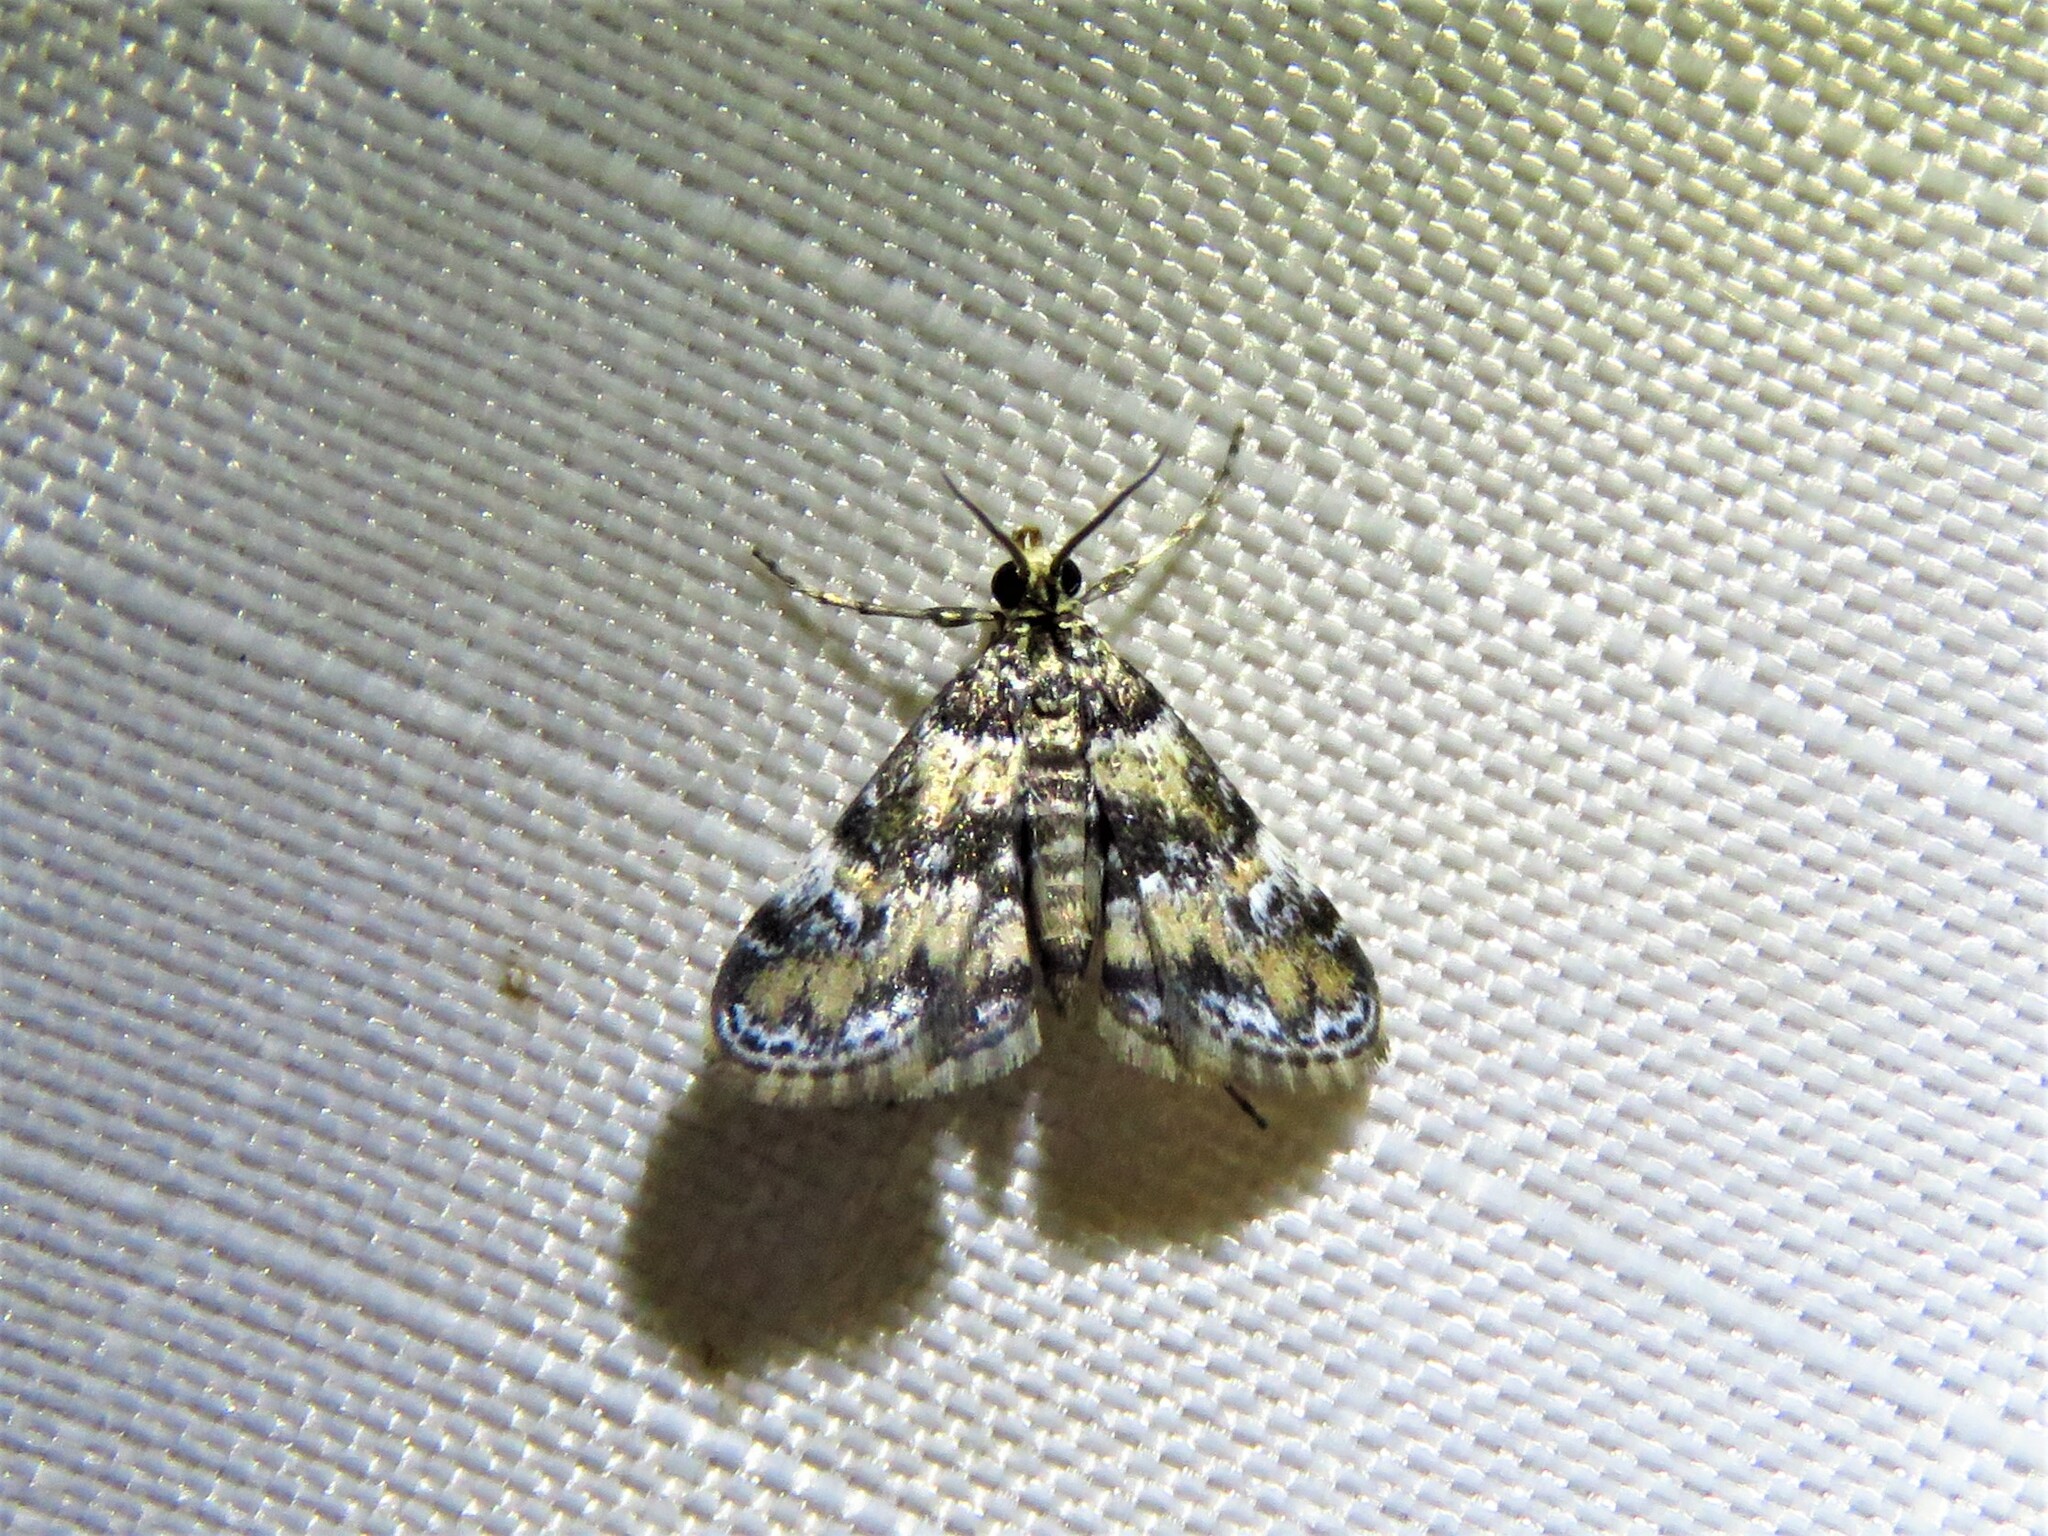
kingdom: Animalia
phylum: Arthropoda
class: Insecta
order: Lepidoptera
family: Crambidae
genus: Elophila
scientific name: Elophila obliteralis
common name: Waterlily leafcutter moth
